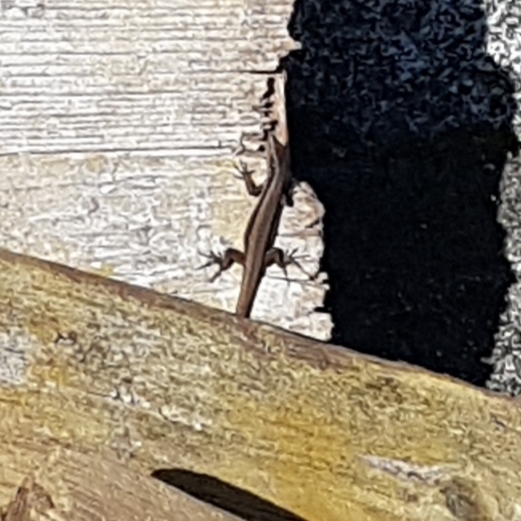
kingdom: Animalia
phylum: Chordata
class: Squamata
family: Lacertidae
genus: Teira
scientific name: Teira dugesii
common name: Madeira lizard
